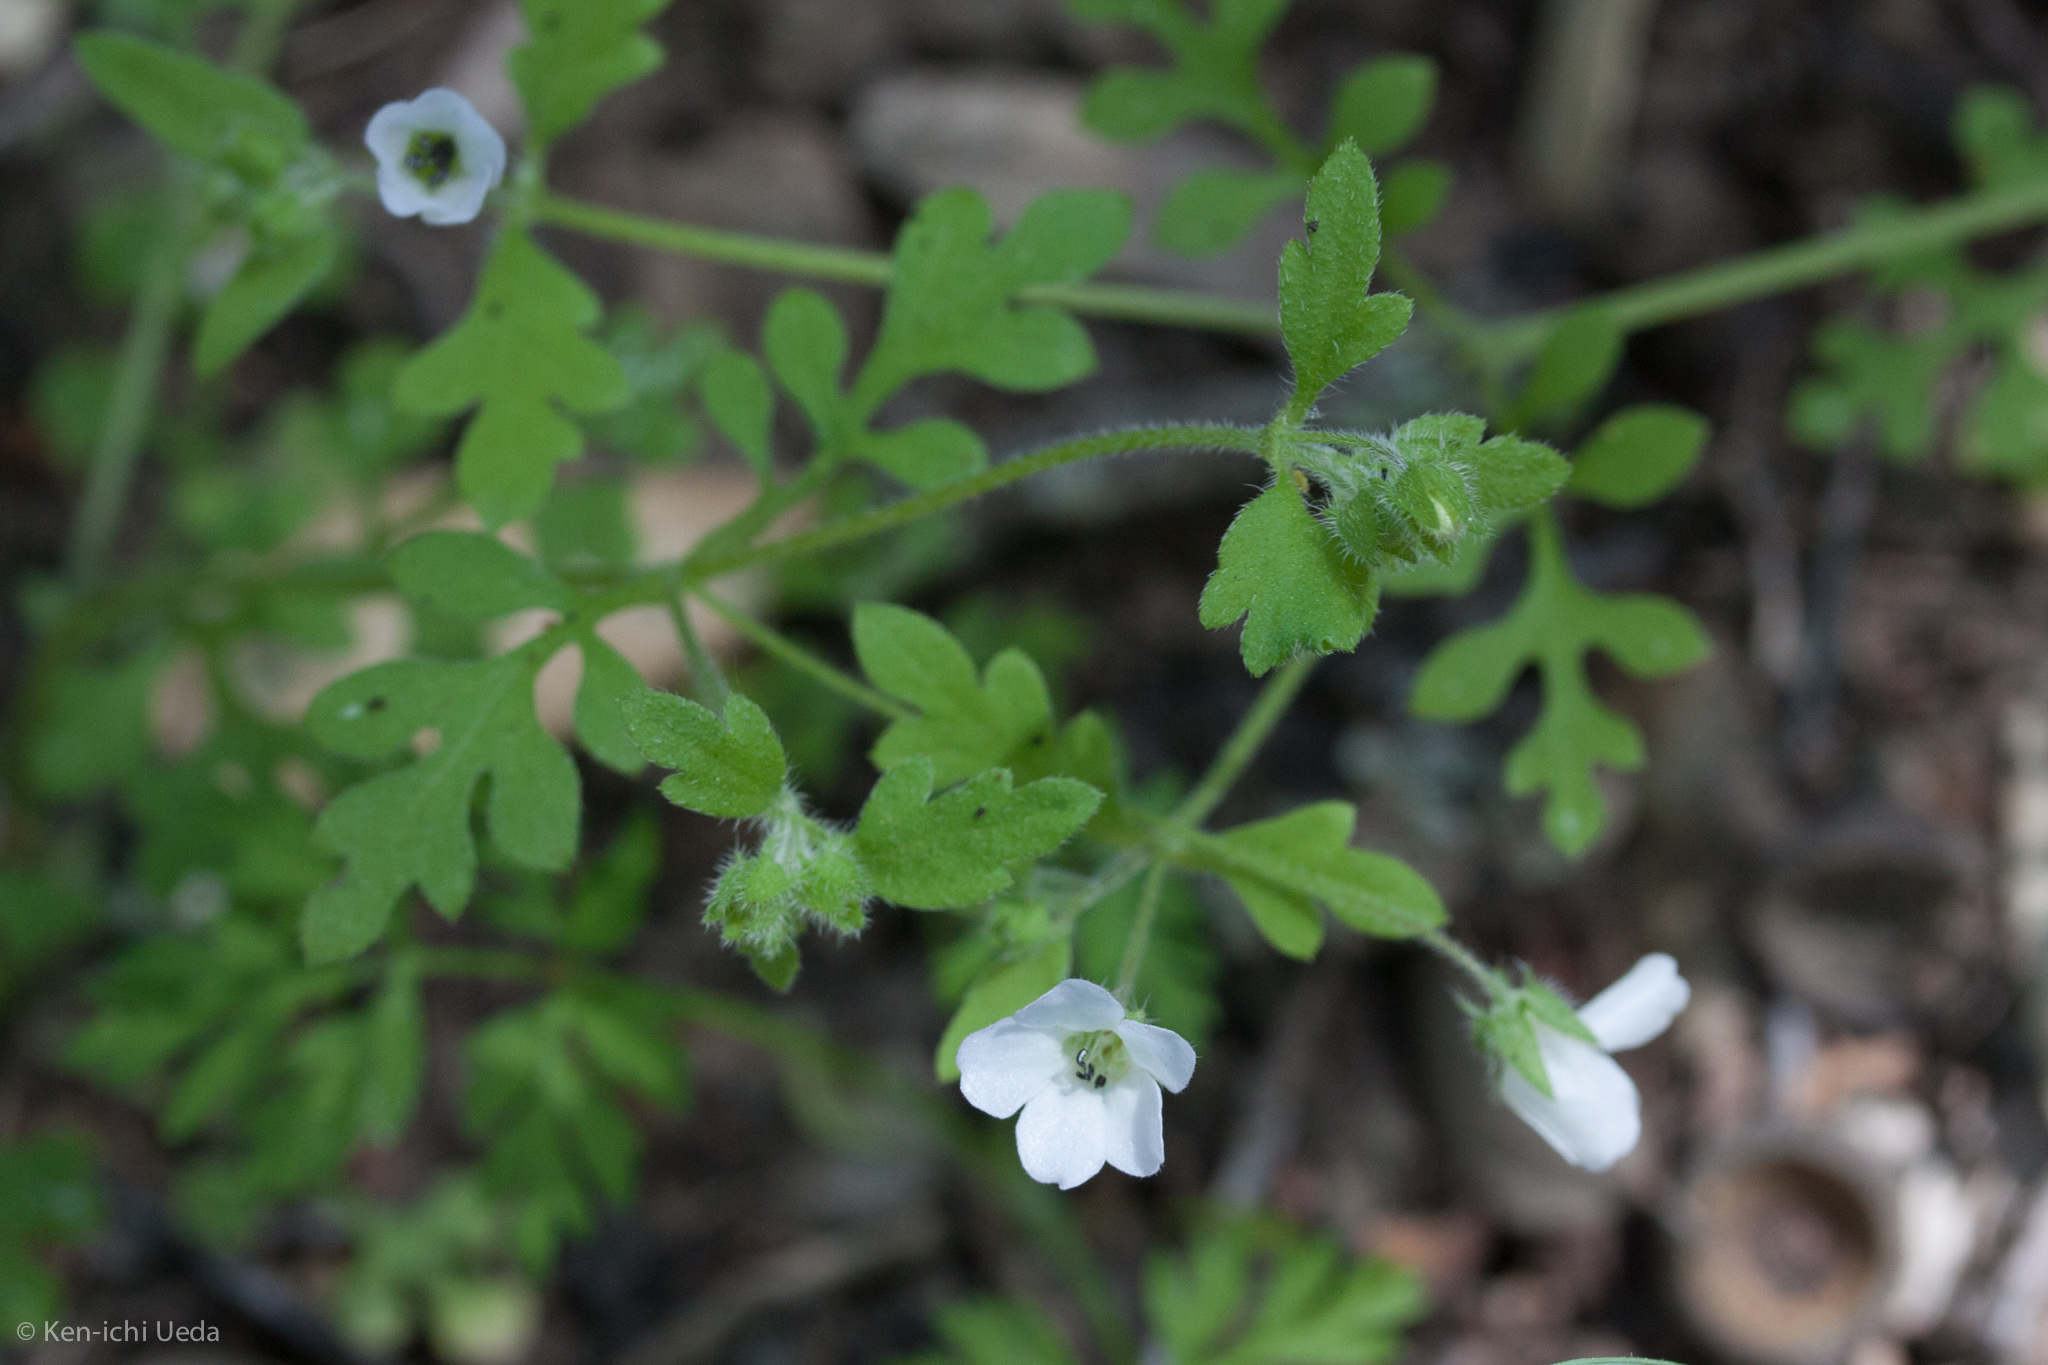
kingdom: Plantae
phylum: Tracheophyta
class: Magnoliopsida
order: Boraginales
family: Hydrophyllaceae
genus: Nemophila
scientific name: Nemophila heterophylla
